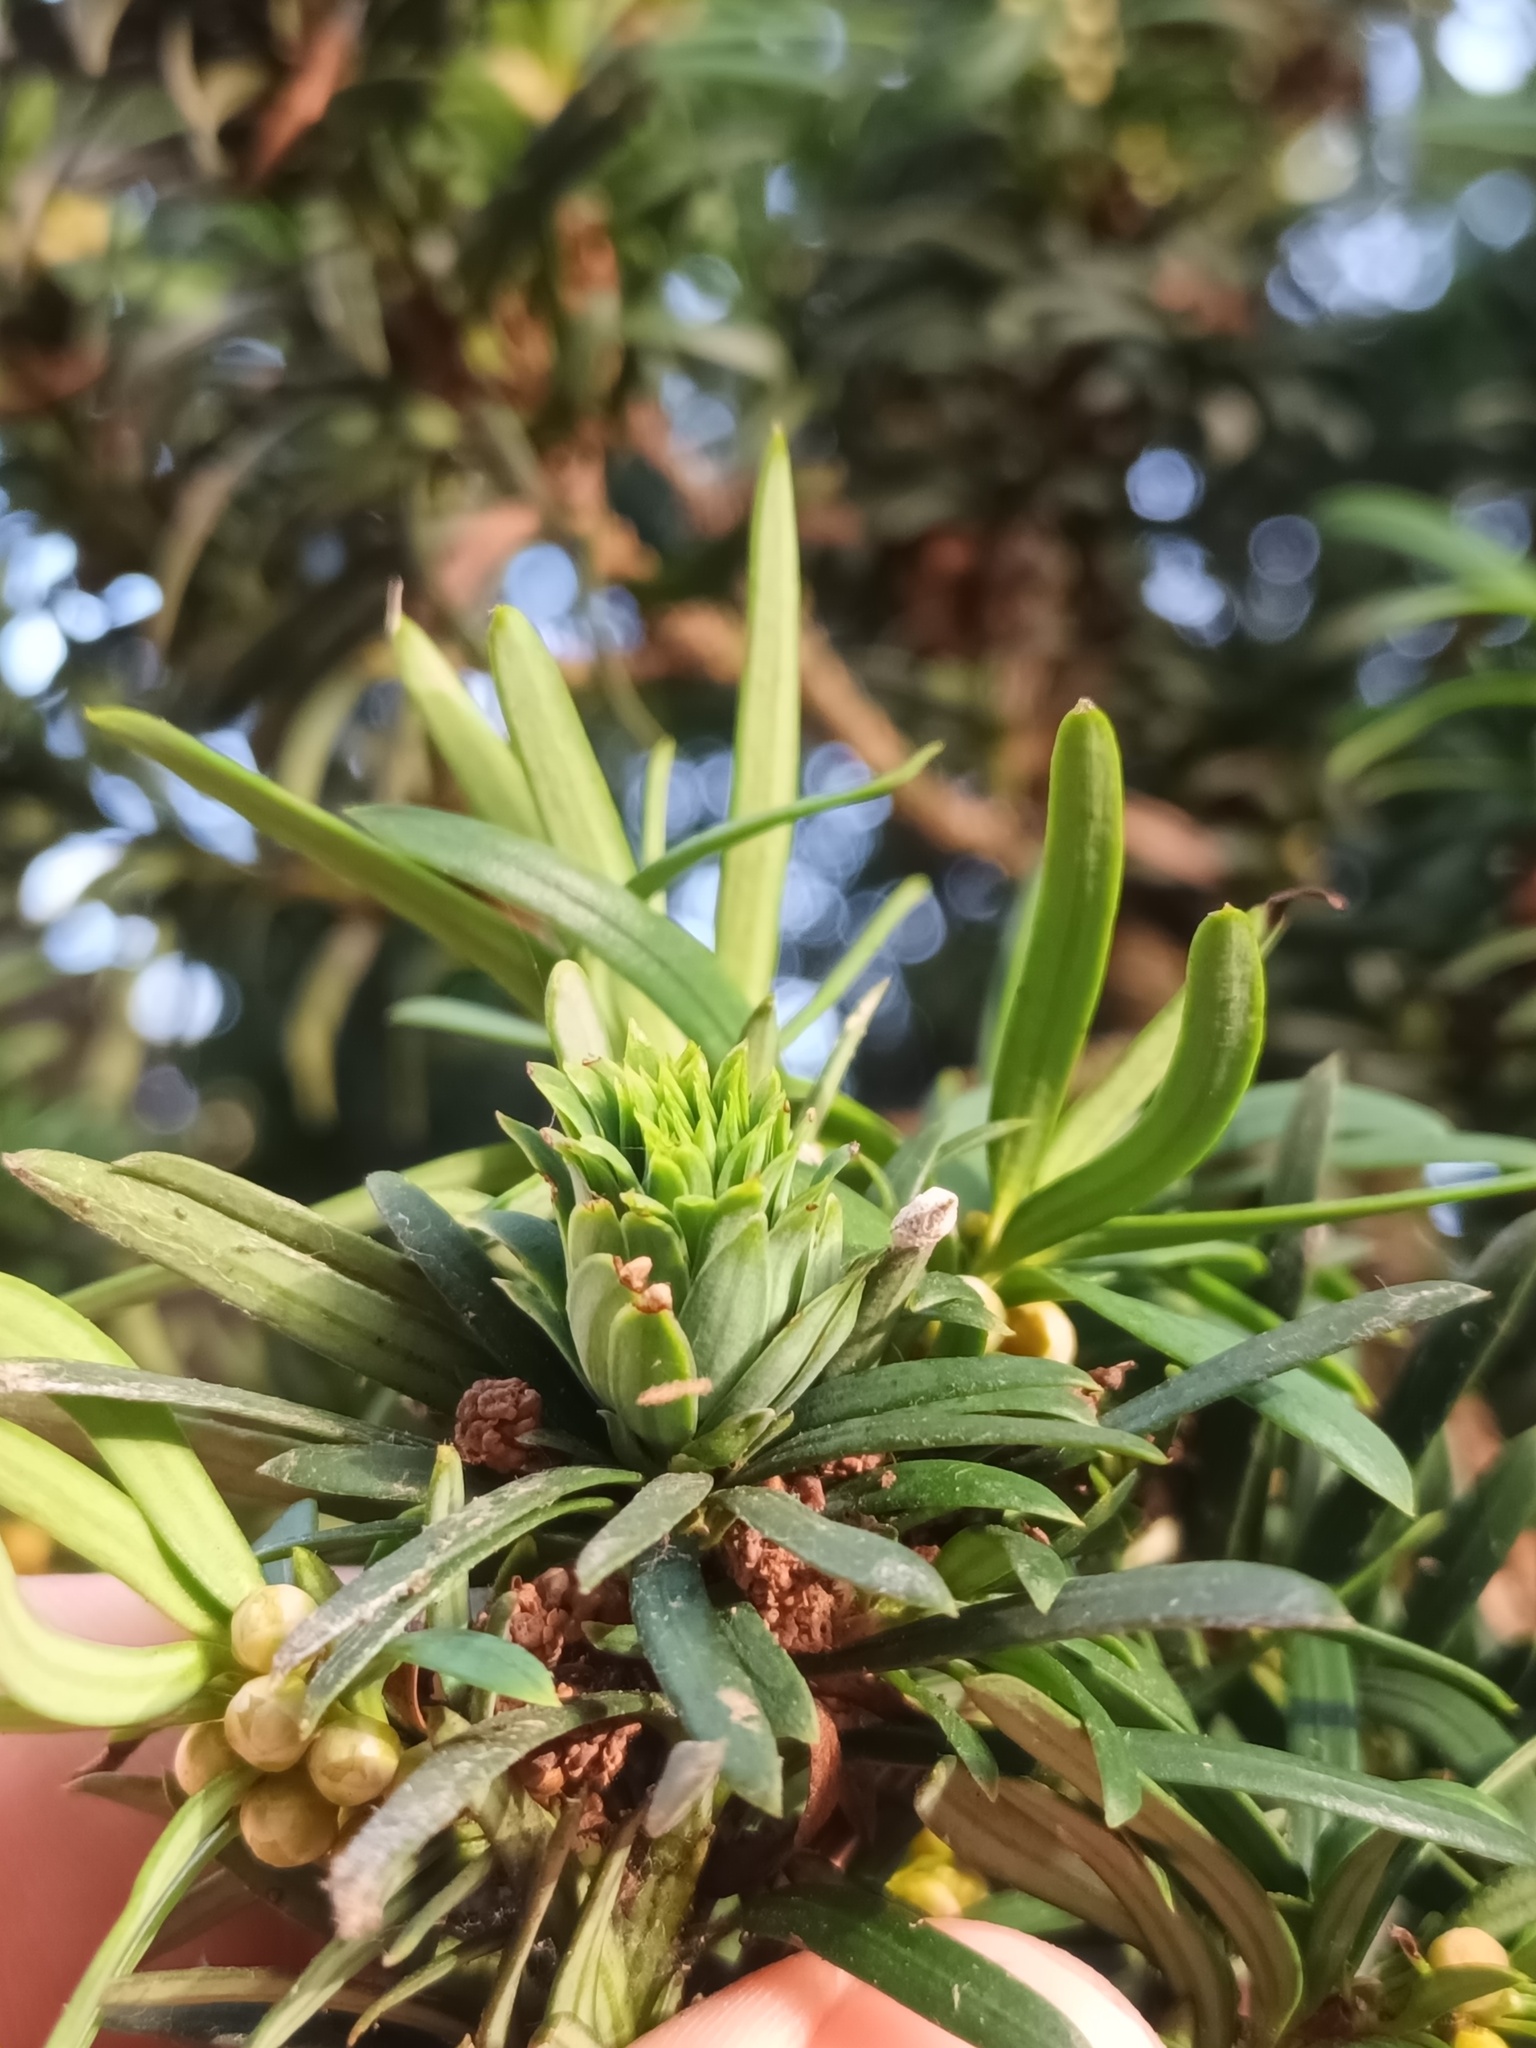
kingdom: Animalia
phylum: Arthropoda
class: Insecta
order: Diptera
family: Cecidomyiidae
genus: Taxomyia
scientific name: Taxomyia taxi
